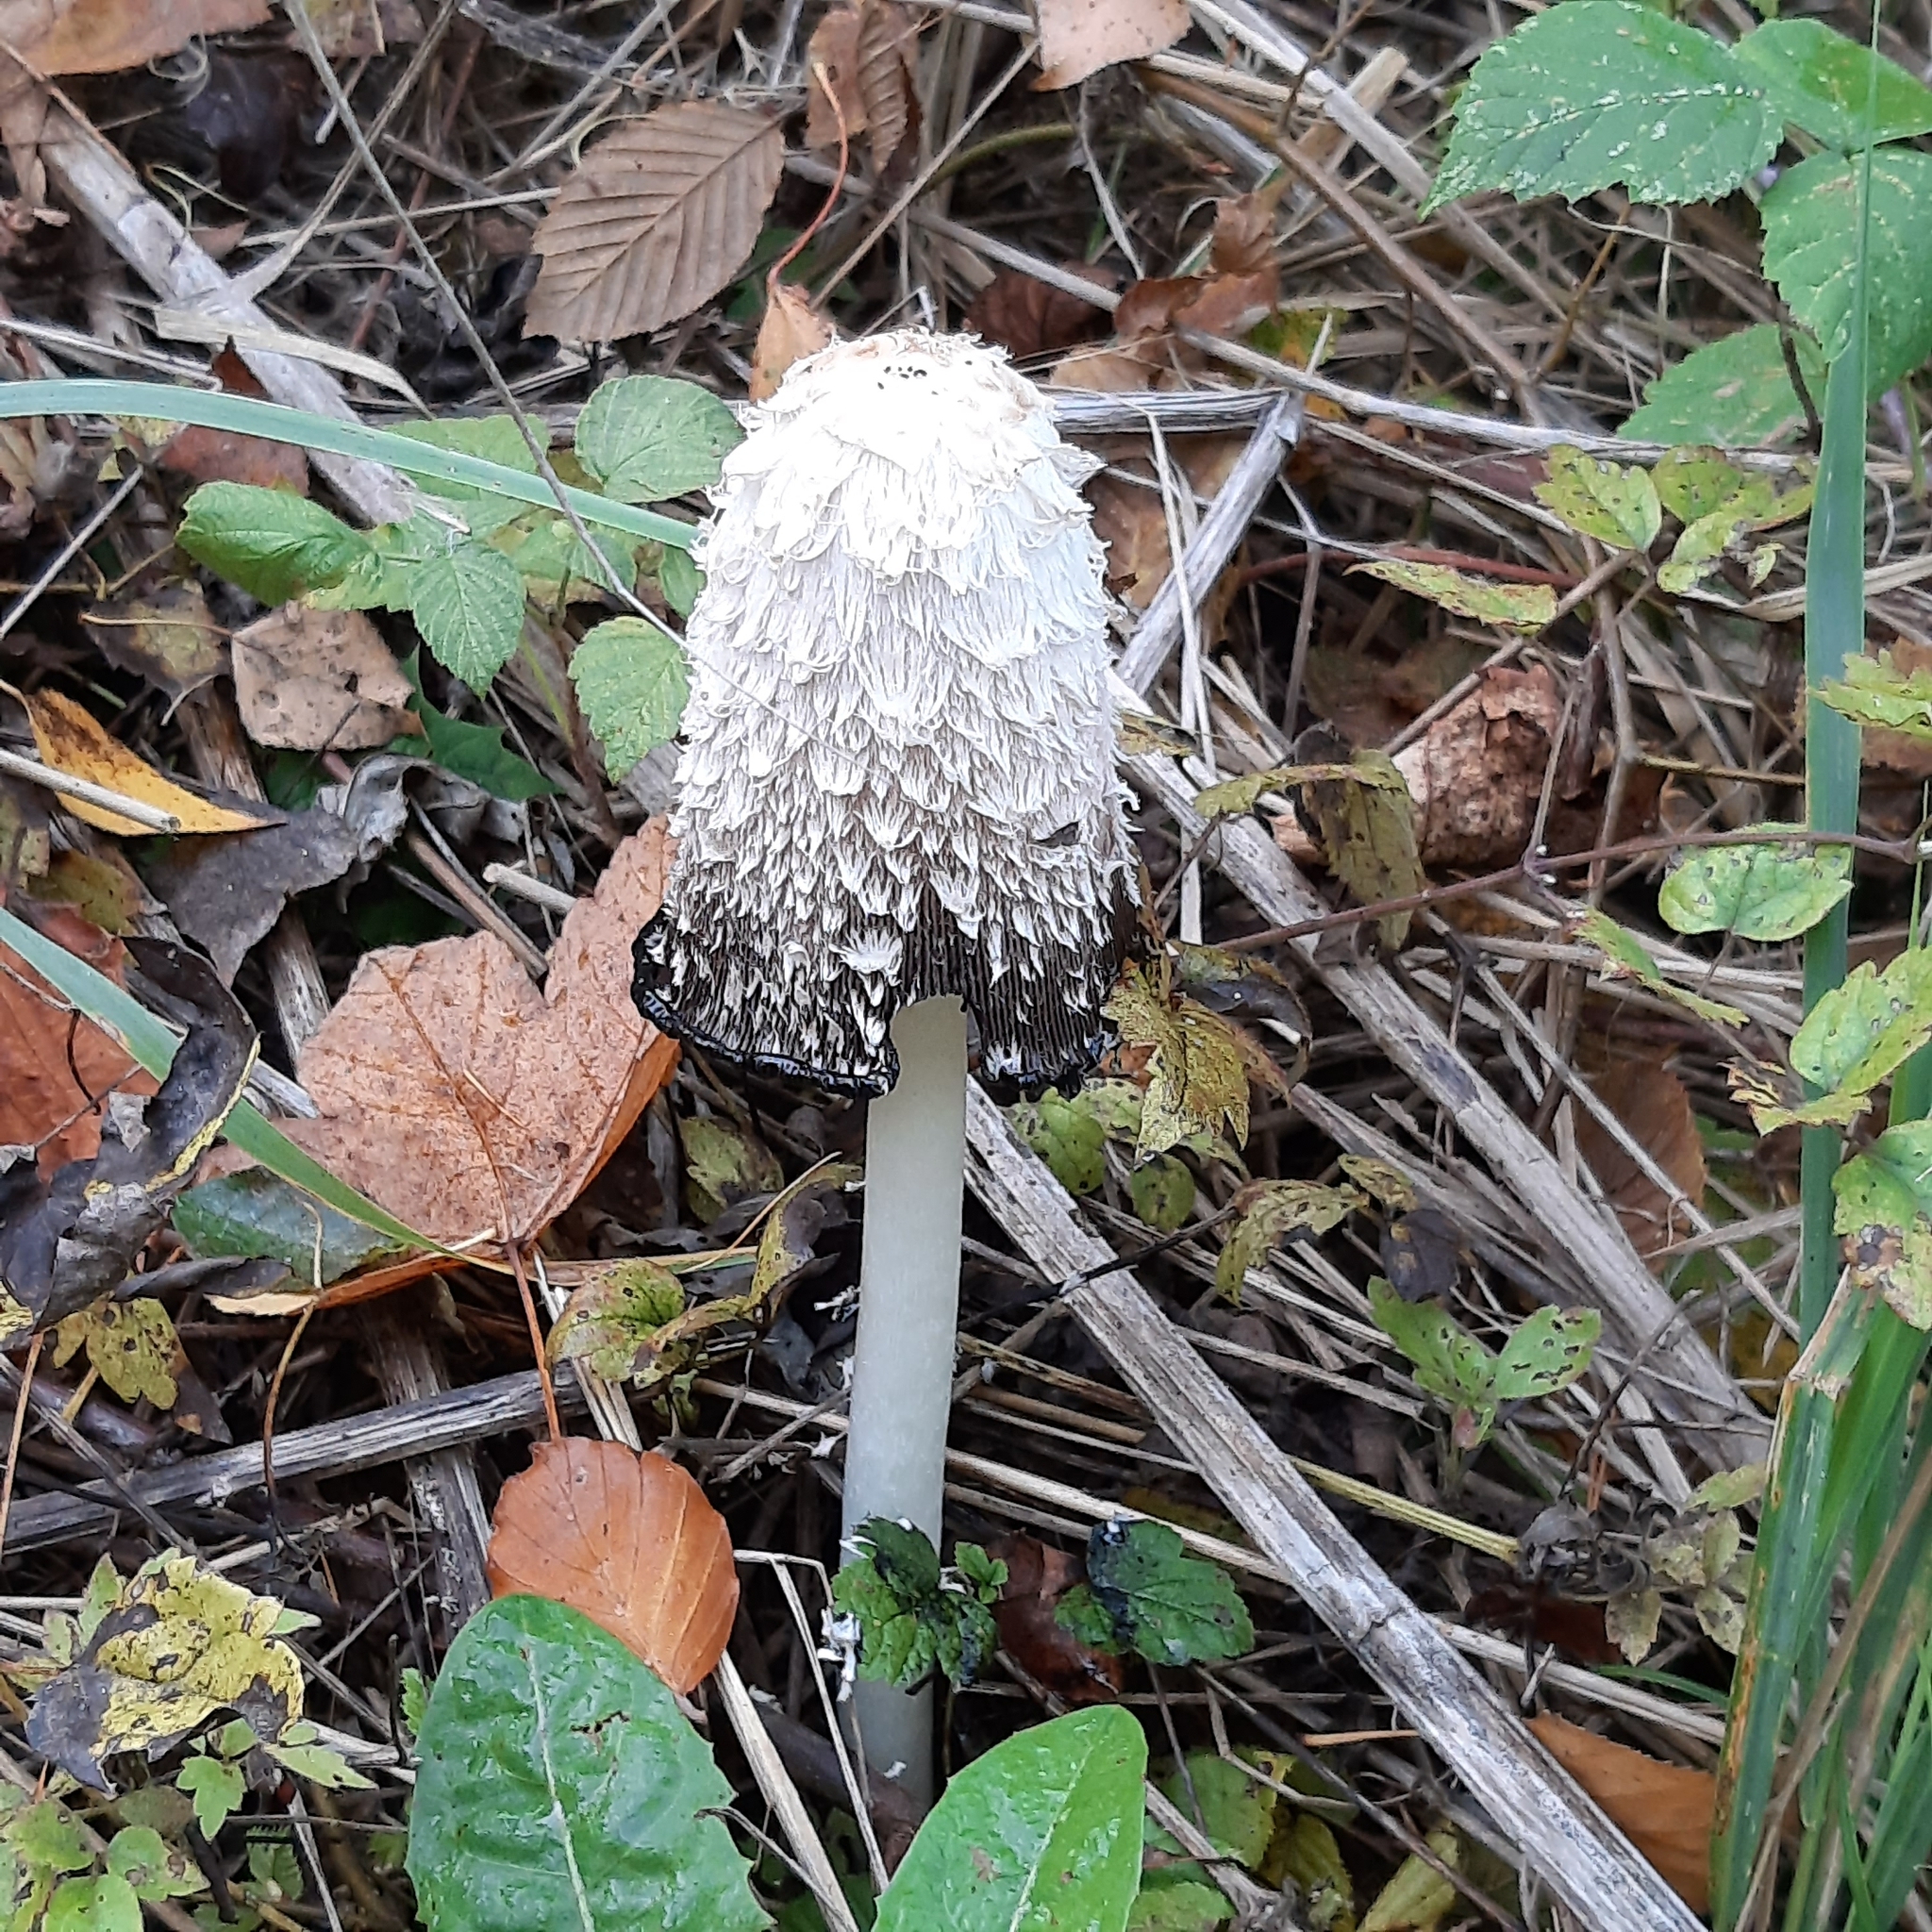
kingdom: Fungi
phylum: Basidiomycota
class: Agaricomycetes
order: Agaricales
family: Agaricaceae
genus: Coprinus
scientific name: Coprinus comatus
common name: Lawyer's wig
